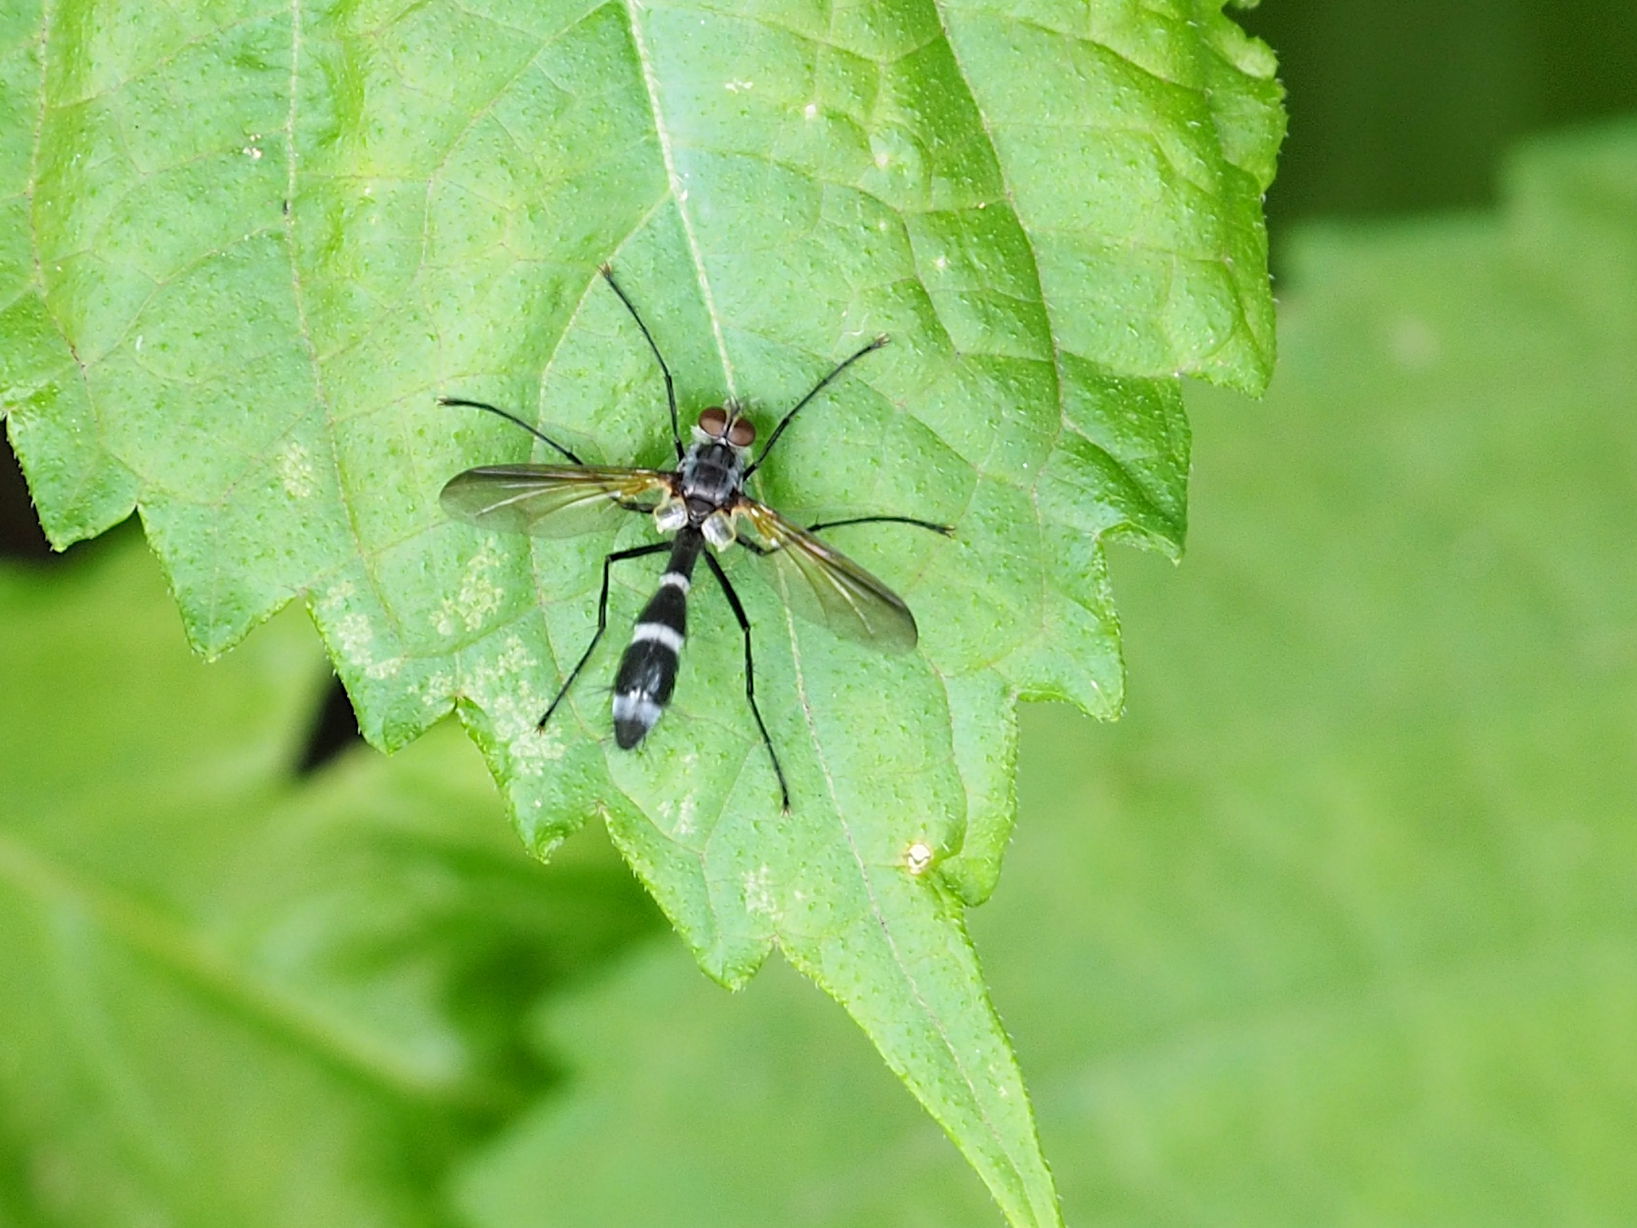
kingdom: Animalia
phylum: Arthropoda
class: Insecta
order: Diptera
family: Tachinidae
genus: Cordyligaster
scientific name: Cordyligaster septentrionalis
